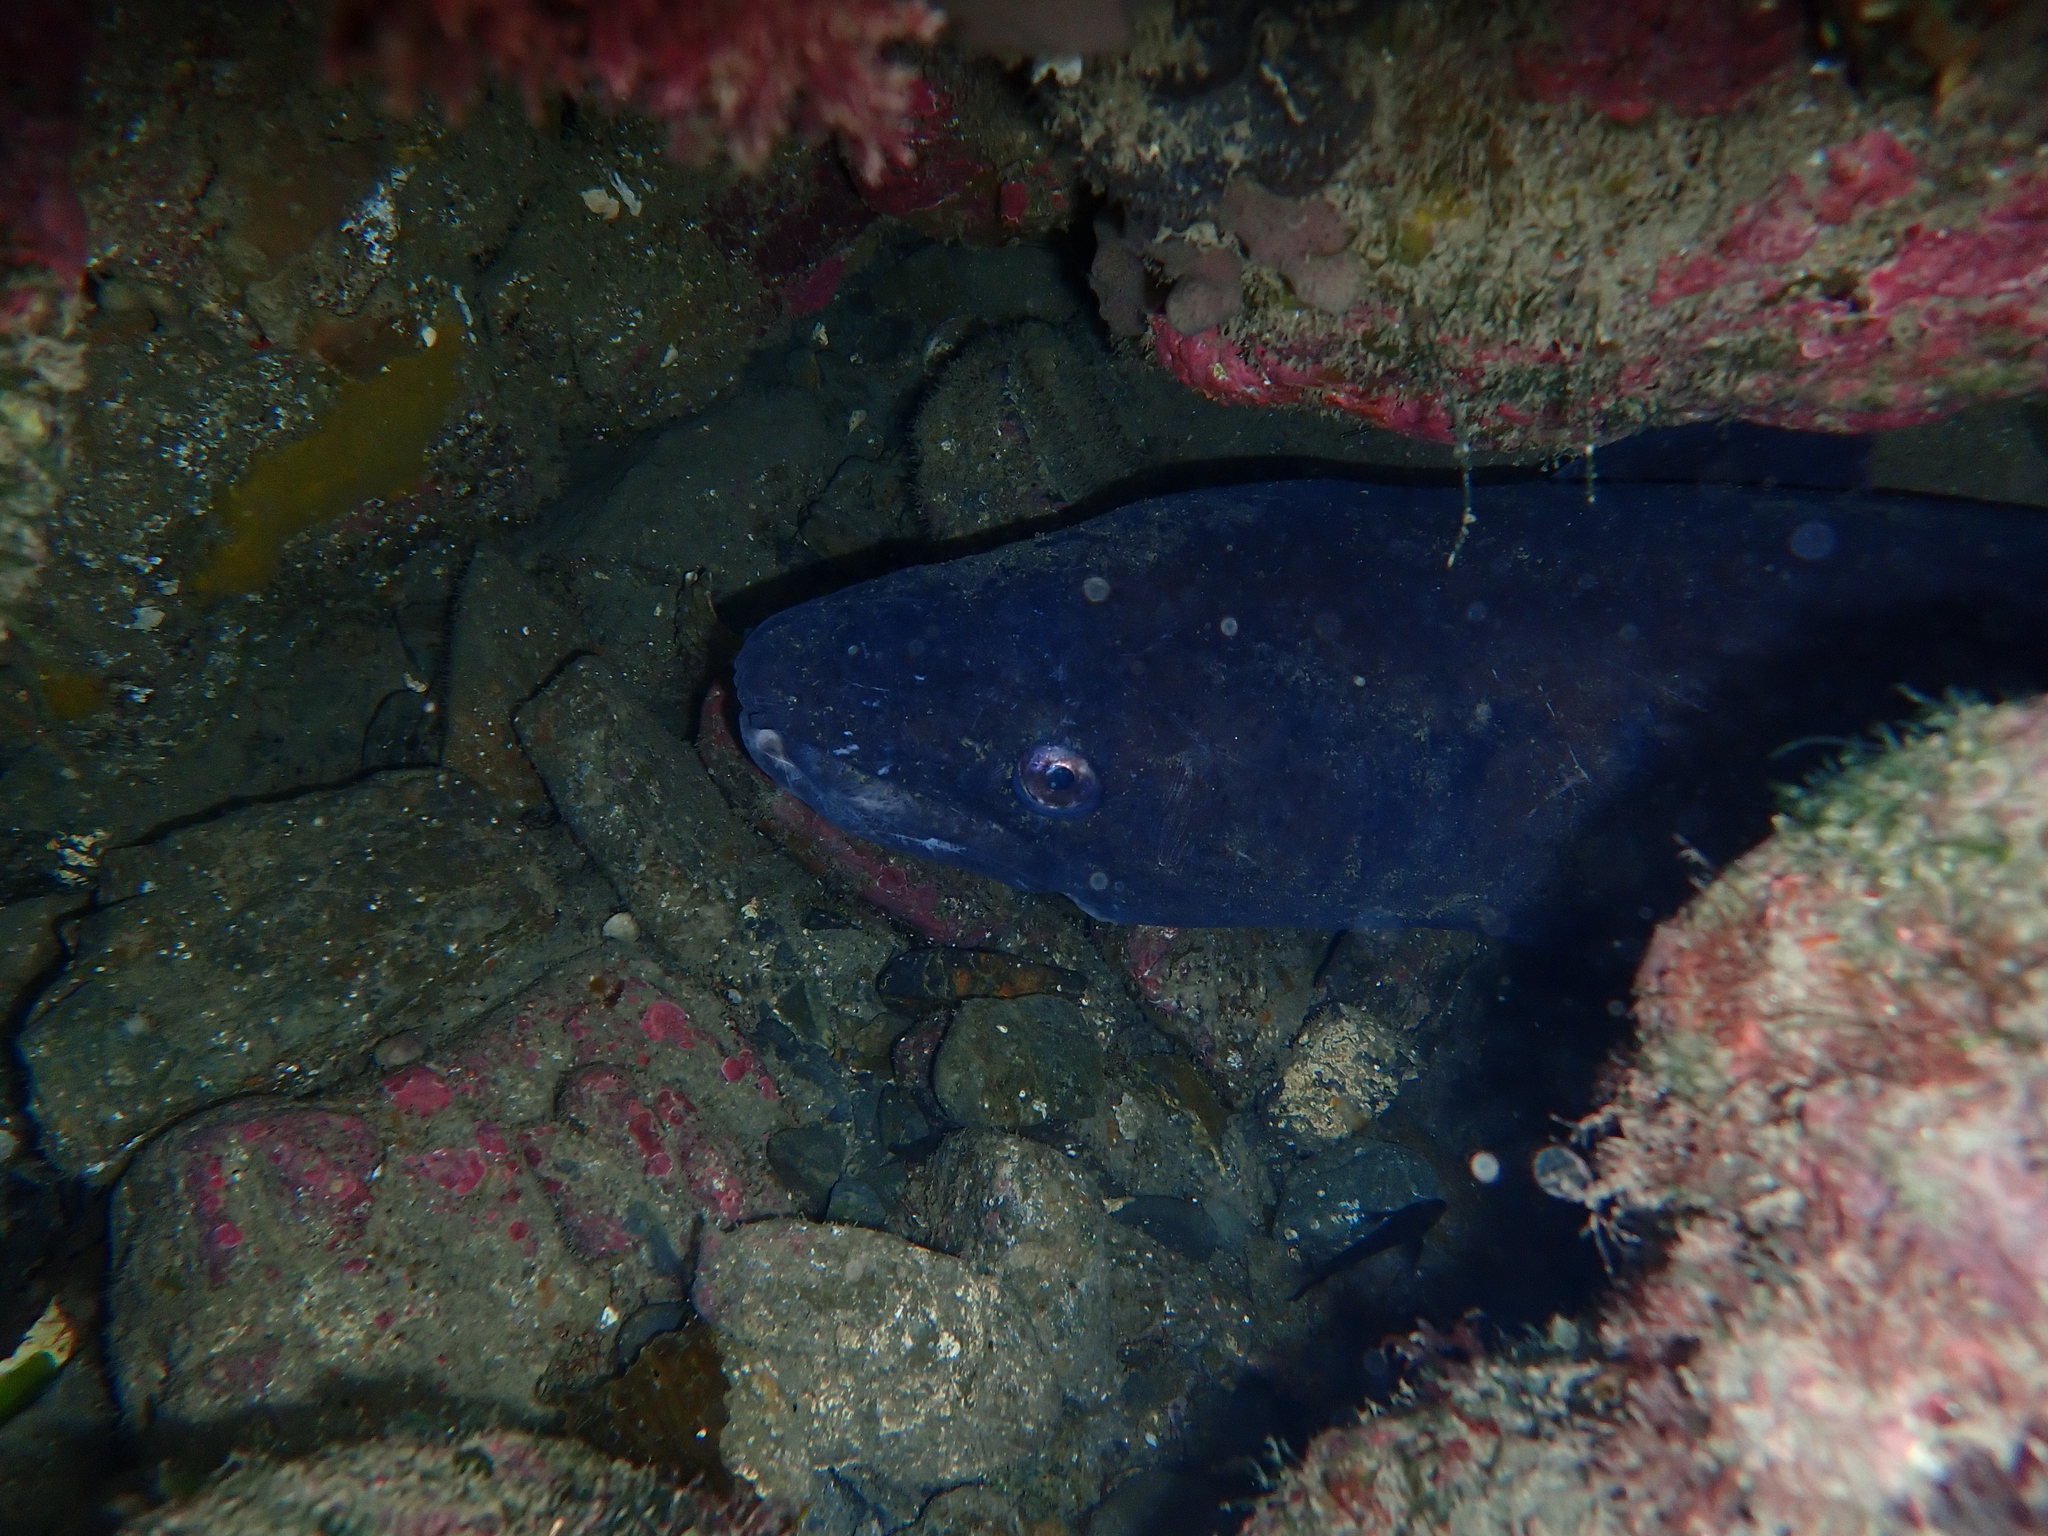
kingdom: Animalia
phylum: Chordata
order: Anguilliformes
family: Congridae
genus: Conger
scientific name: Conger verreauxi
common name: Conger eel
